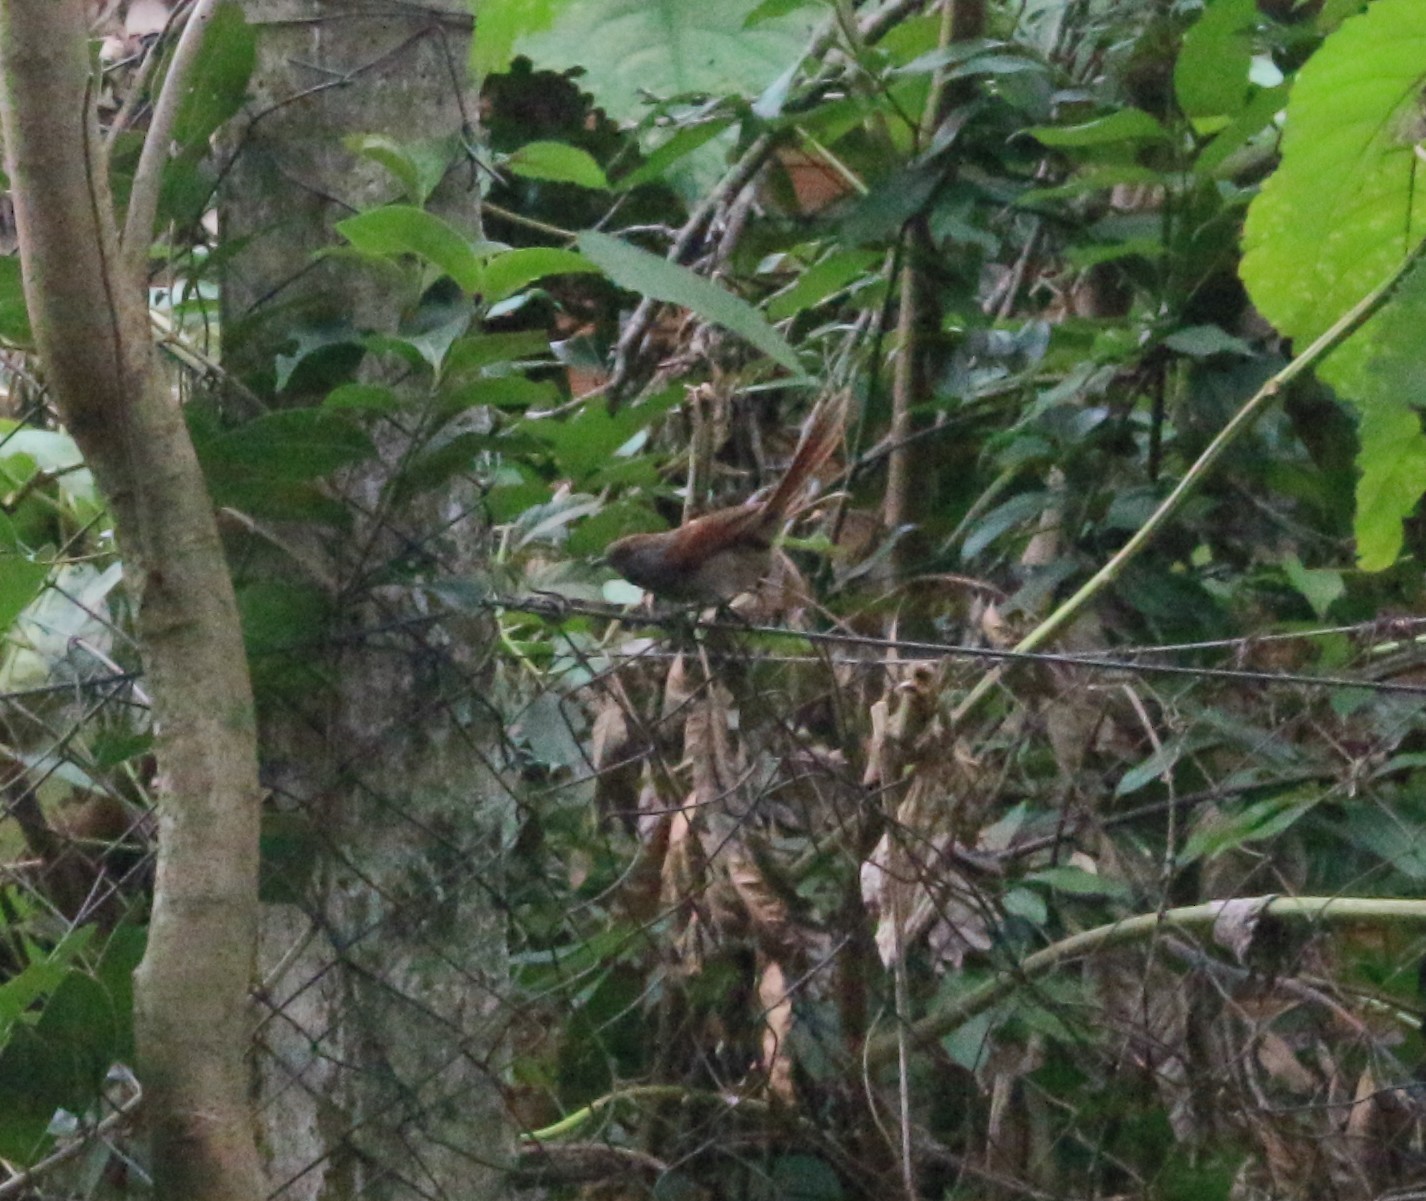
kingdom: Animalia
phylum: Chordata
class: Aves
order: Passeriformes
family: Furnariidae
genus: Synallaxis
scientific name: Synallaxis frontalis
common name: Sooty-fronted spinetail
